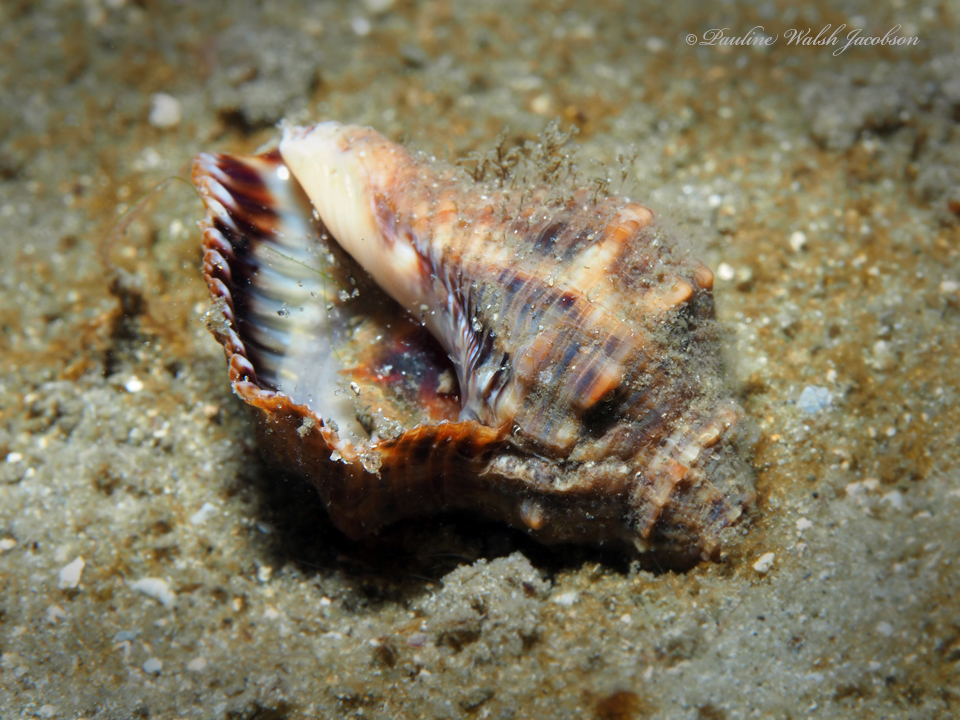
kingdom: Animalia
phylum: Mollusca
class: Gastropoda
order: Neogastropoda
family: Muricidae
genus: Stramonita
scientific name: Stramonita floridana
